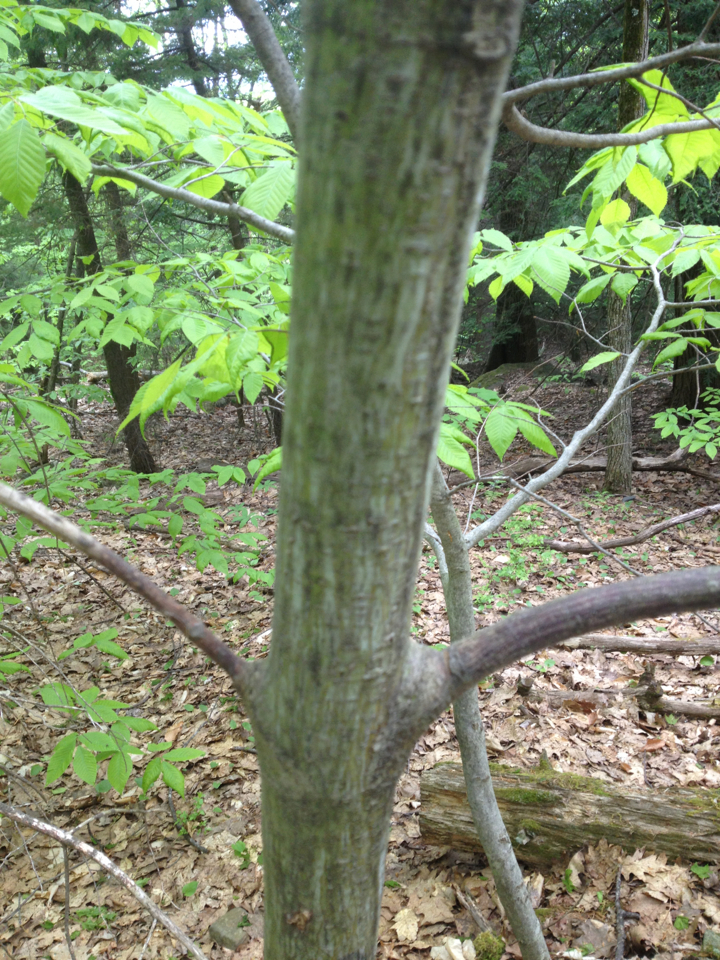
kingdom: Plantae
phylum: Tracheophyta
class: Magnoliopsida
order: Sapindales
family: Sapindaceae
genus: Acer
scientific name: Acer pensylvanicum
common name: Moosewood
